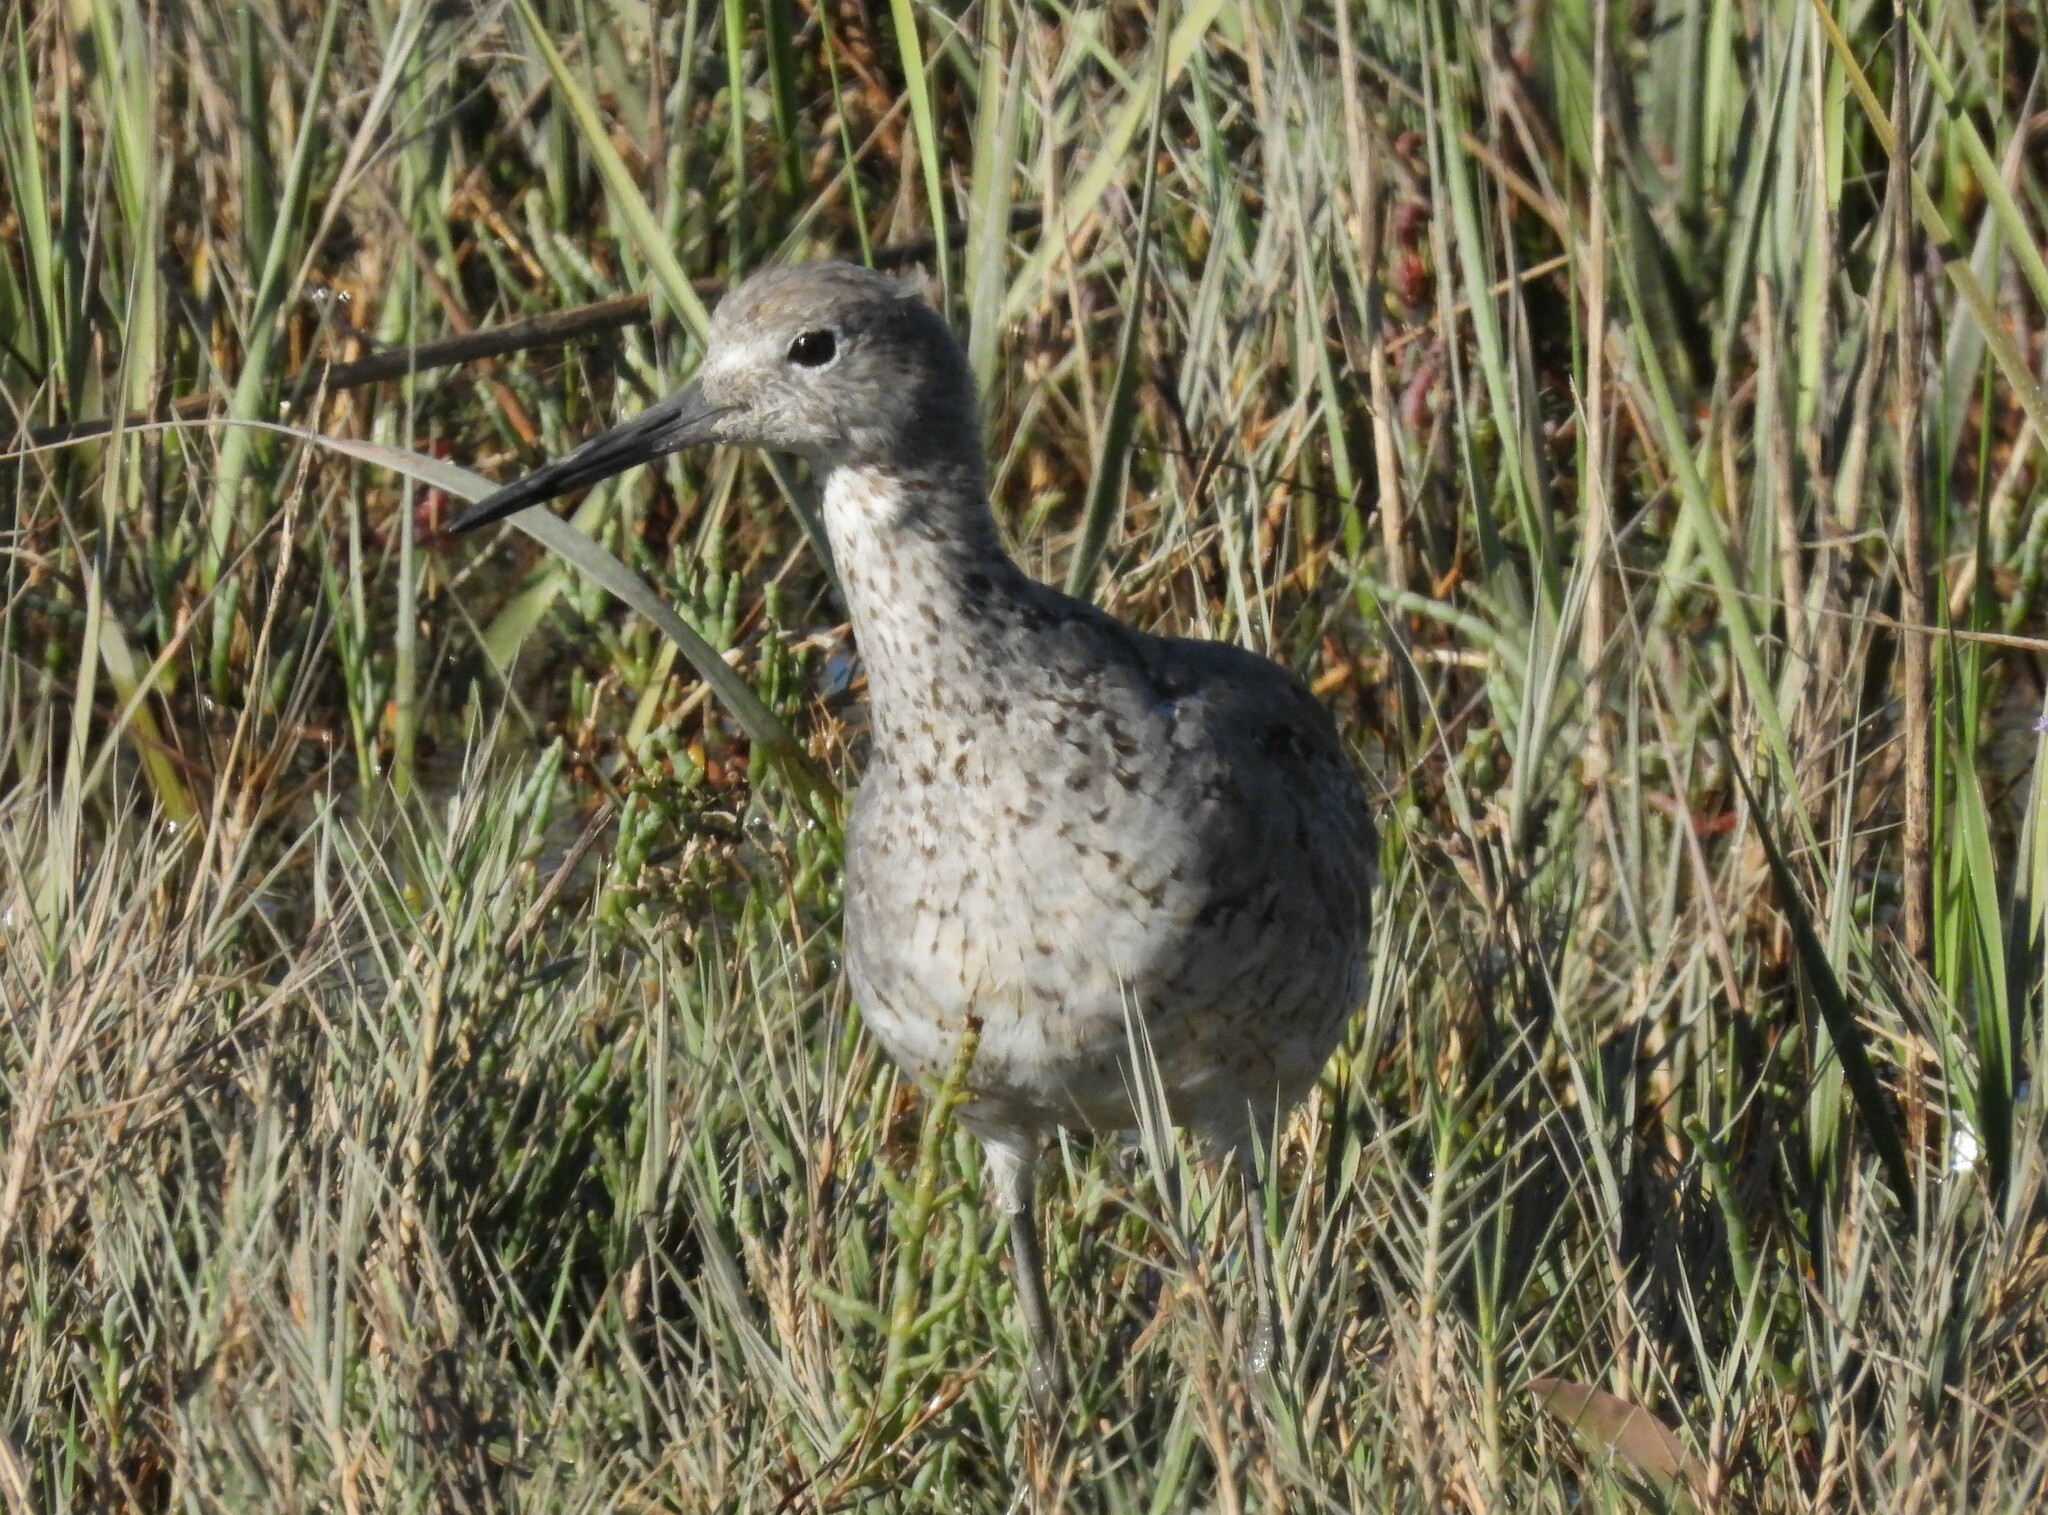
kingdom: Animalia
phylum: Chordata
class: Aves
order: Charadriiformes
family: Scolopacidae
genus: Tringa
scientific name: Tringa semipalmata
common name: Willet
